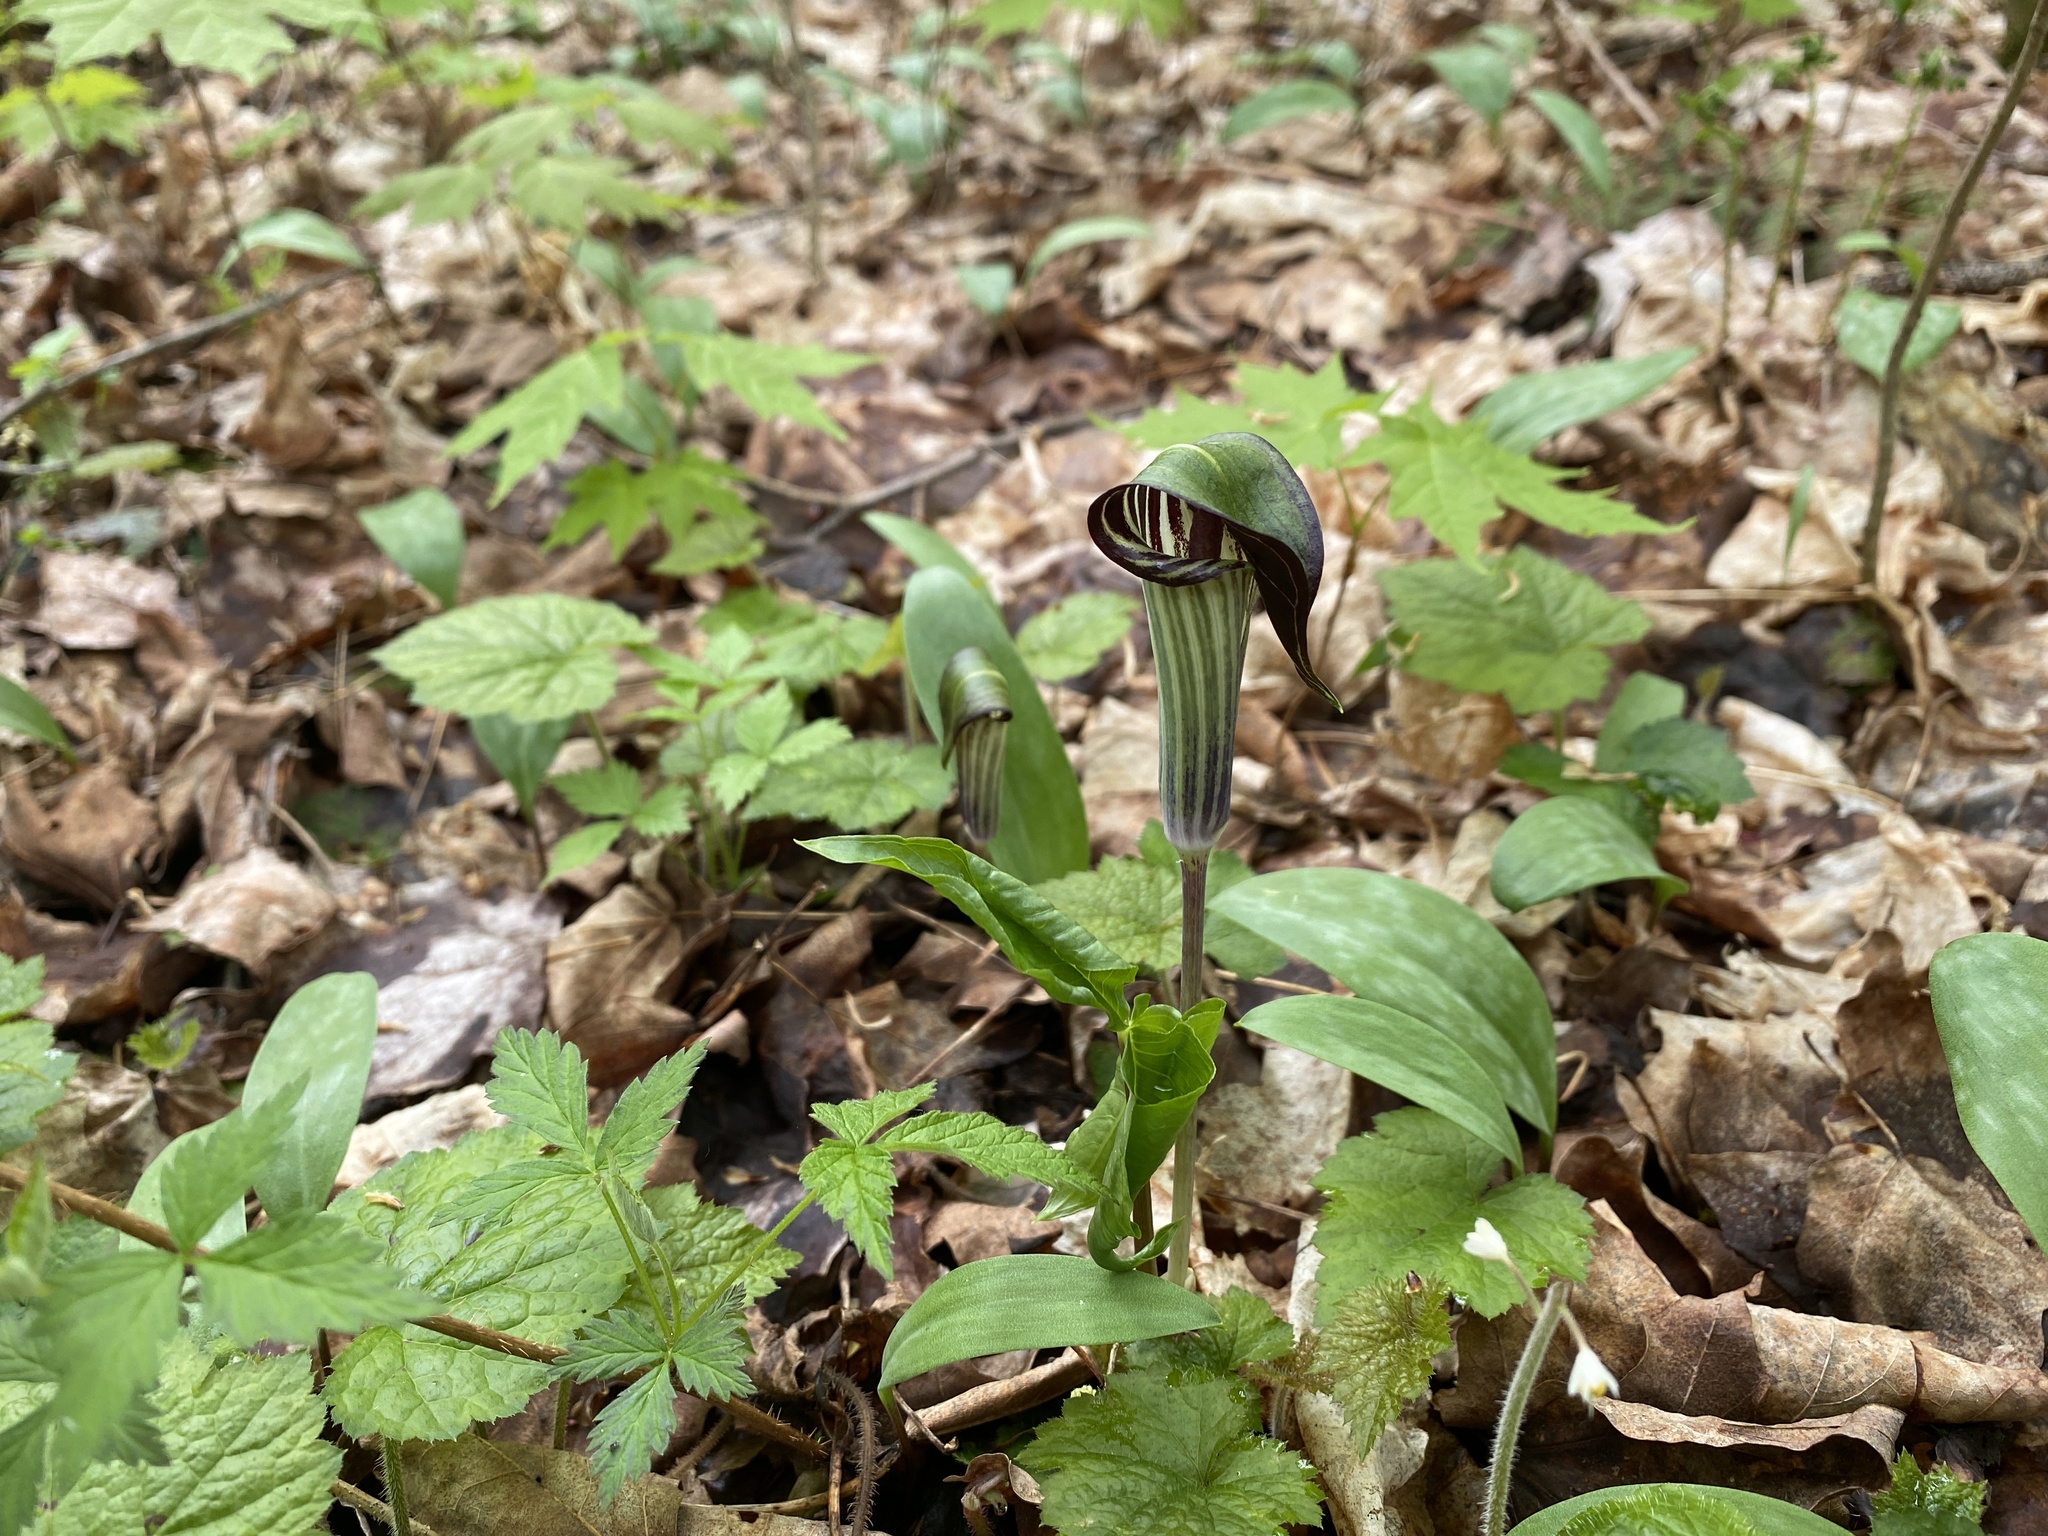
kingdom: Plantae
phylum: Tracheophyta
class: Liliopsida
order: Alismatales
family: Araceae
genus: Arisaema
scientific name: Arisaema triphyllum
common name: Jack-in-the-pulpit
